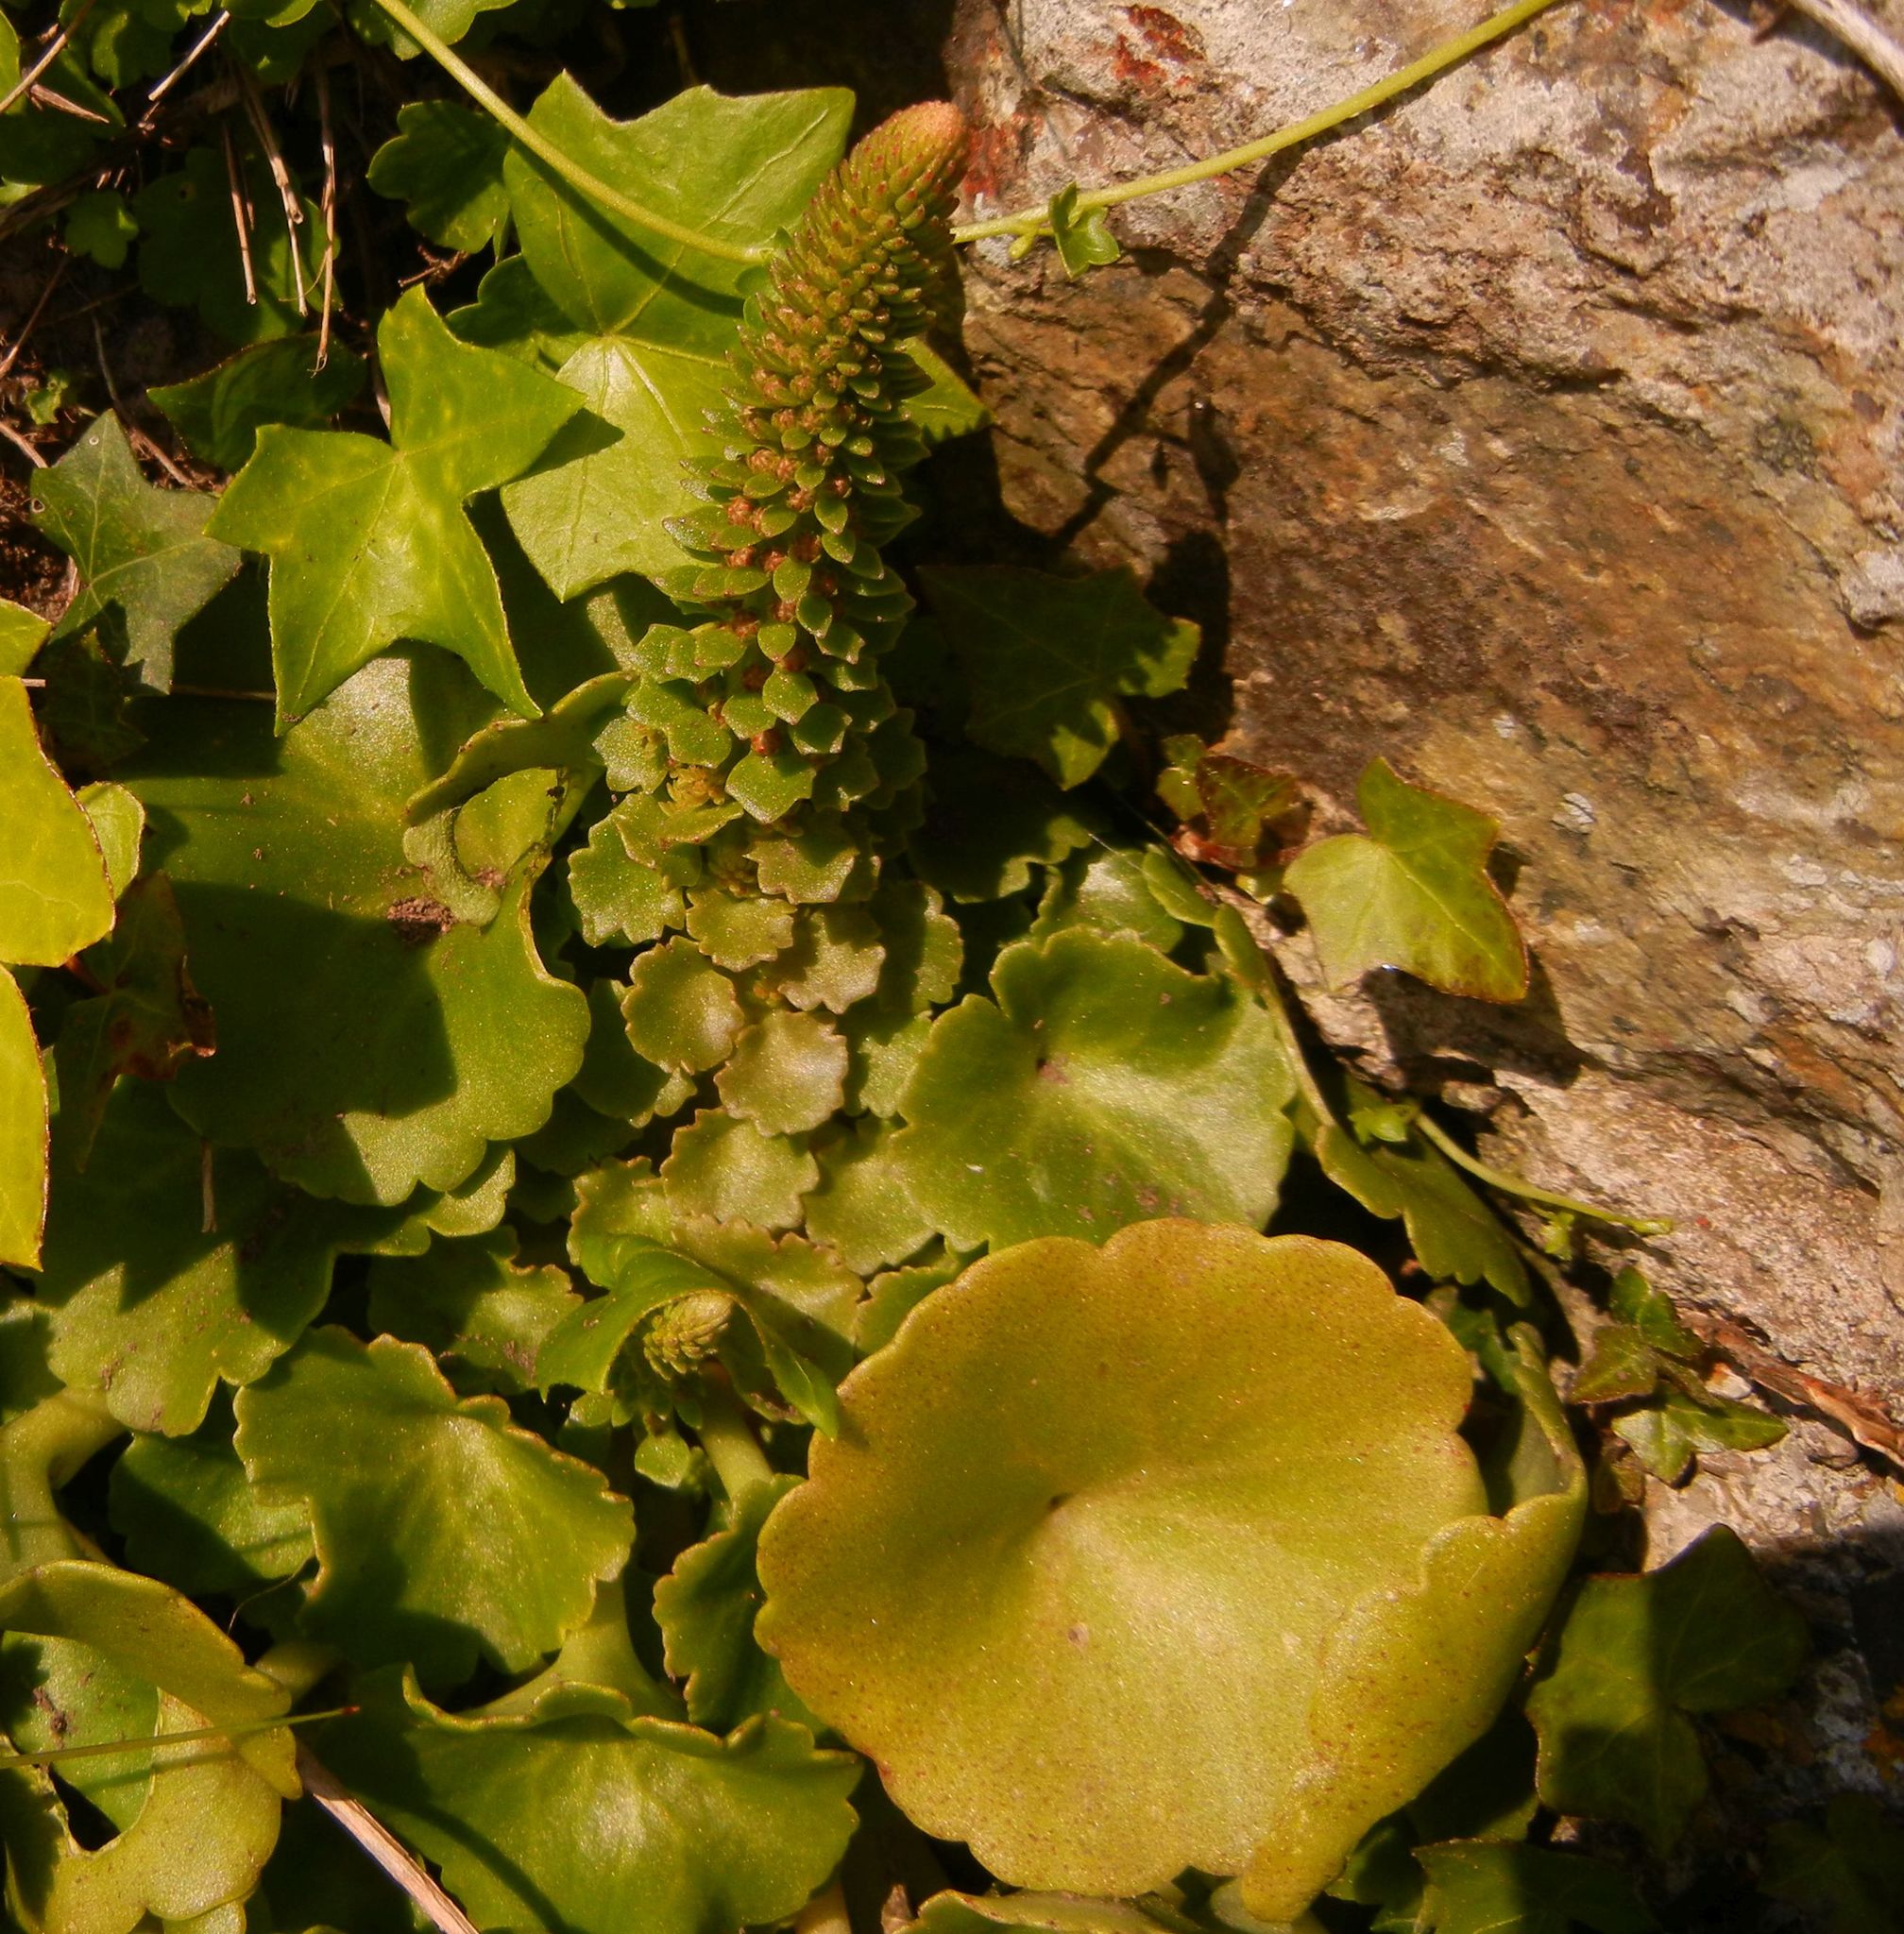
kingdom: Plantae
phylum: Tracheophyta
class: Magnoliopsida
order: Saxifragales
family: Crassulaceae
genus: Umbilicus
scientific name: Umbilicus rupestris
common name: Navelwort
